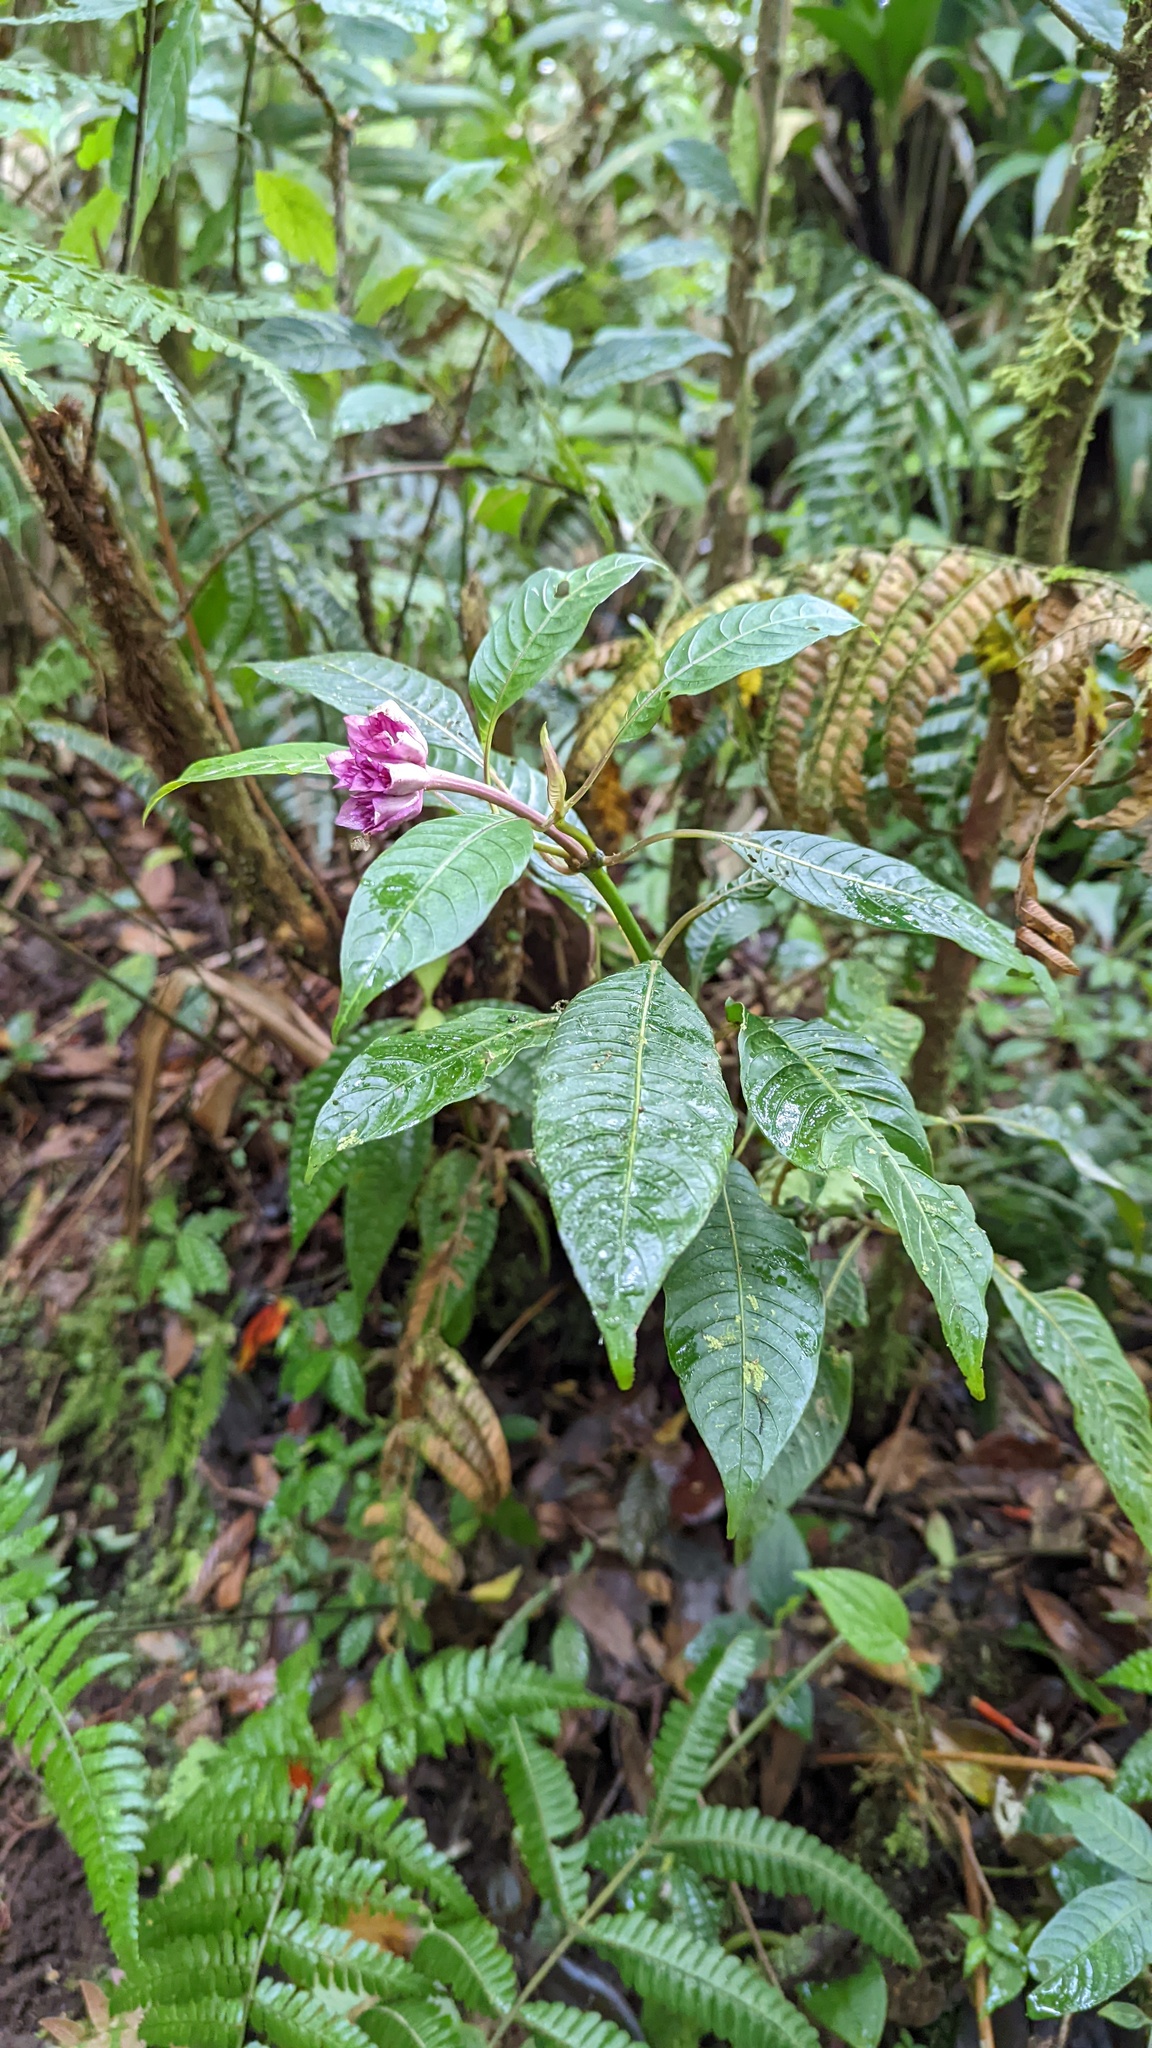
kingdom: Plantae
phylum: Tracheophyta
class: Magnoliopsida
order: Gentianales
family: Rubiaceae
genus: Palicourea
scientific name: Palicourea chiriquiensis
